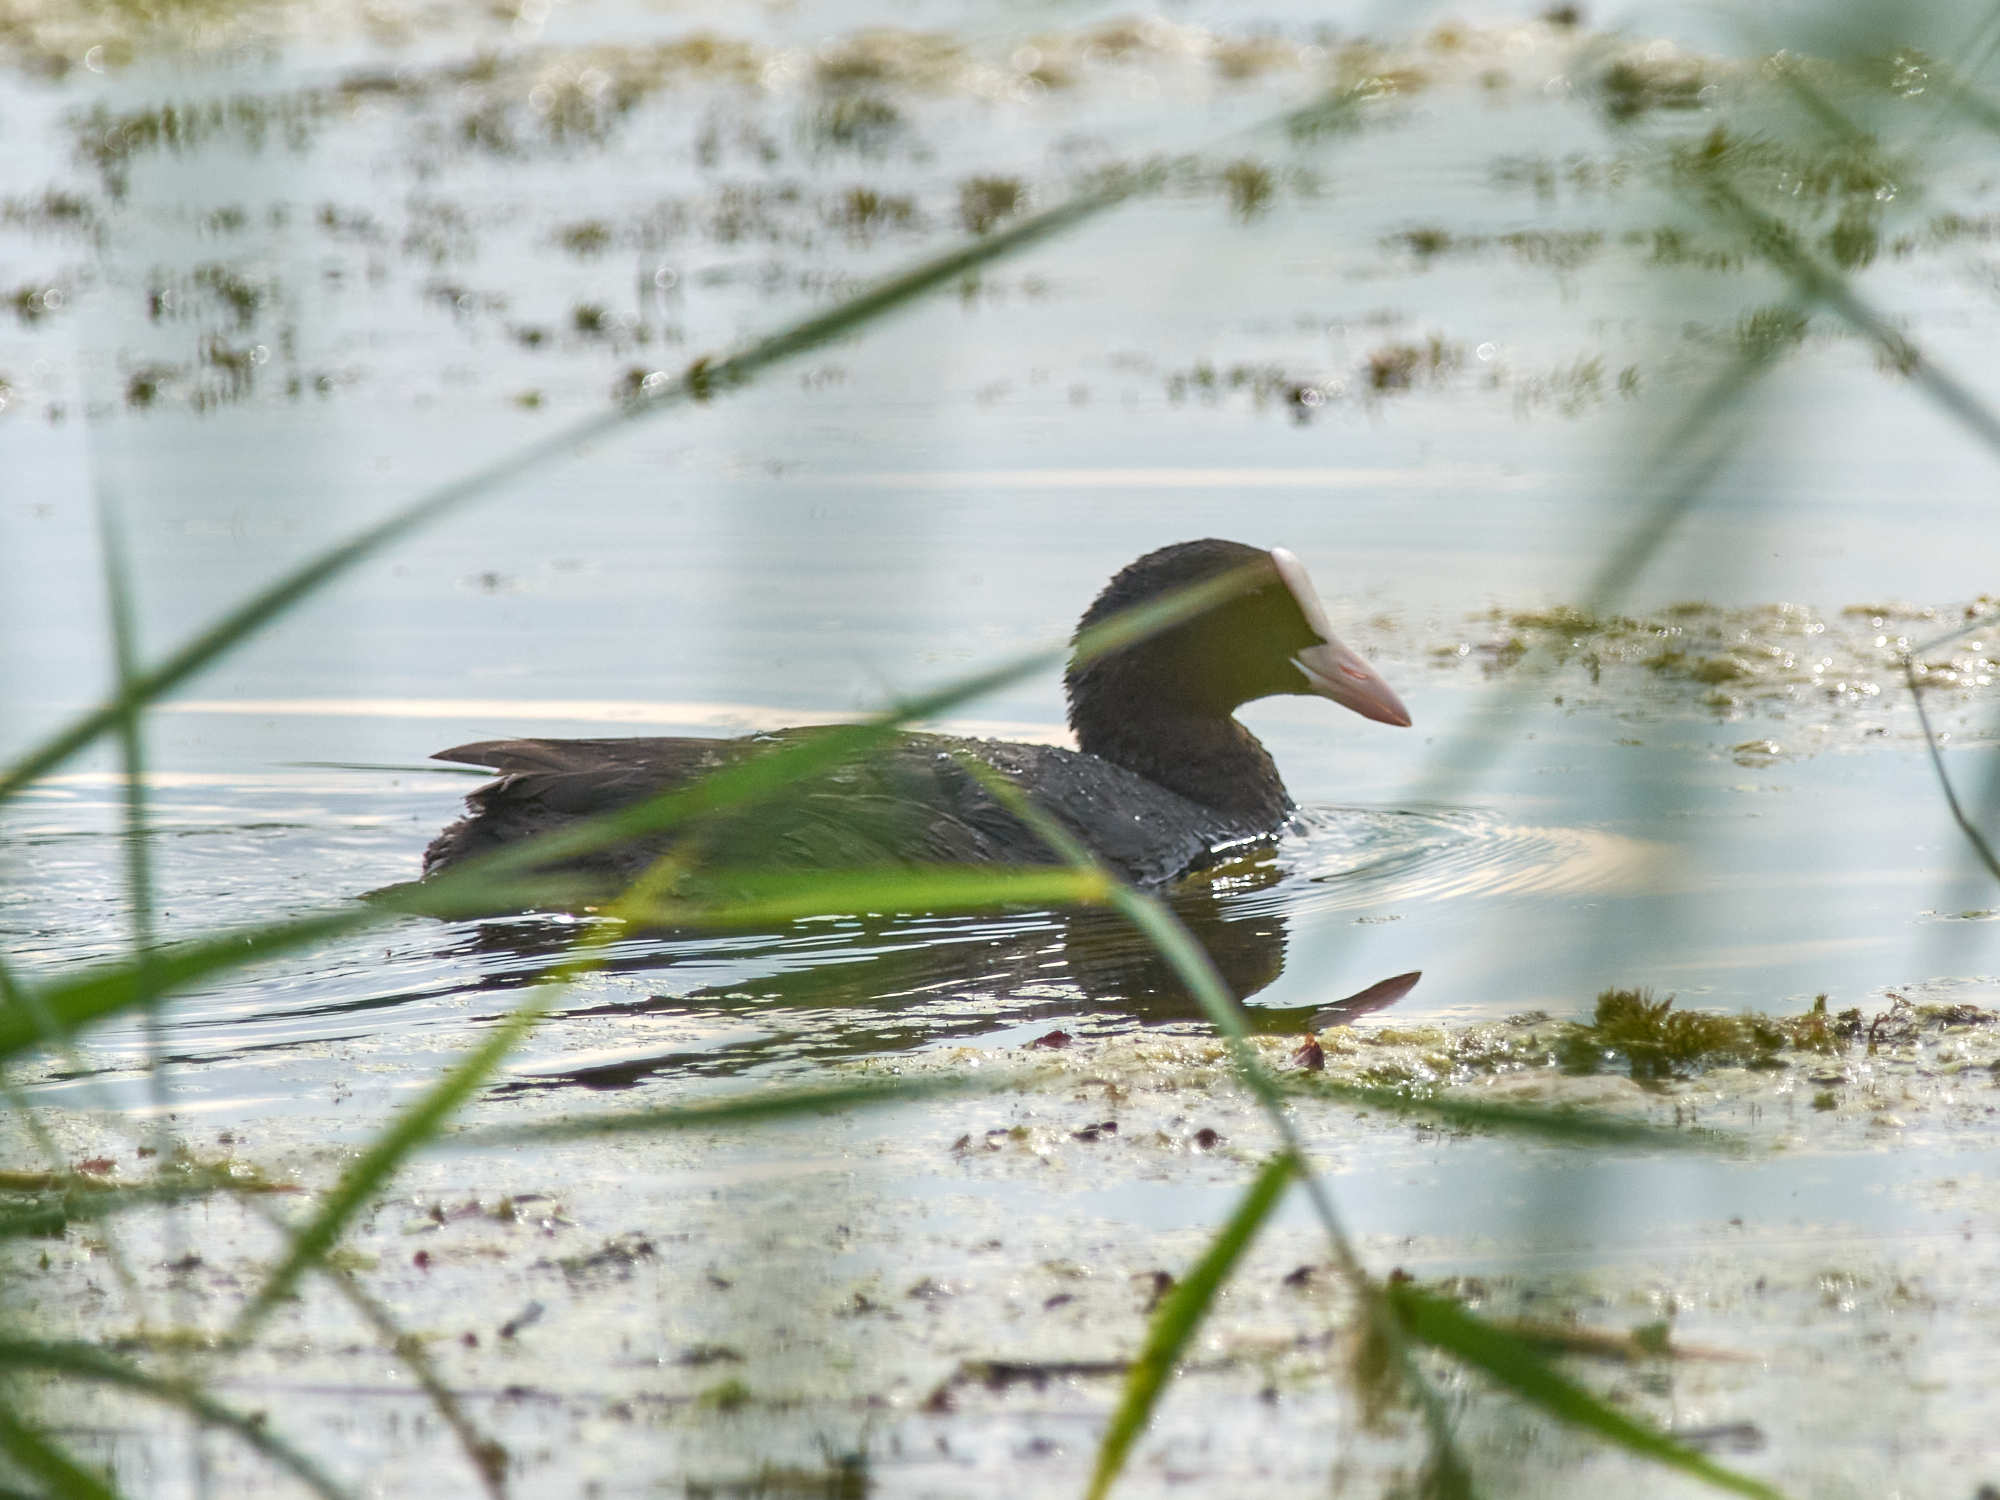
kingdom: Animalia
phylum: Chordata
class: Aves
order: Gruiformes
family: Rallidae
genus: Fulica
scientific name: Fulica atra
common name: Eurasian coot
